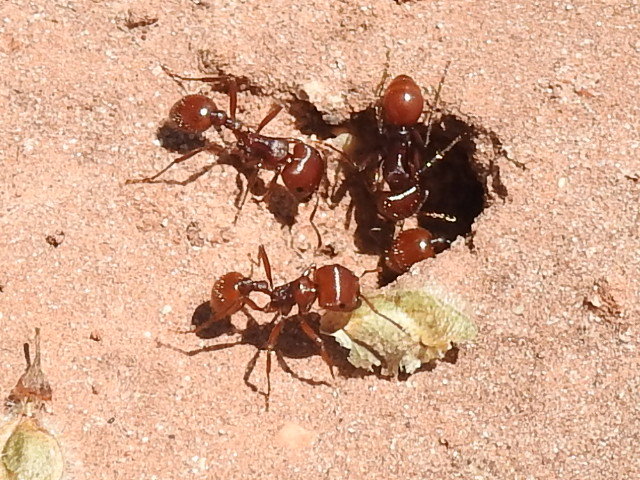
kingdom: Animalia
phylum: Arthropoda
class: Insecta
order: Hymenoptera
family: Formicidae
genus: Pogonomyrmex
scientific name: Pogonomyrmex barbatus
